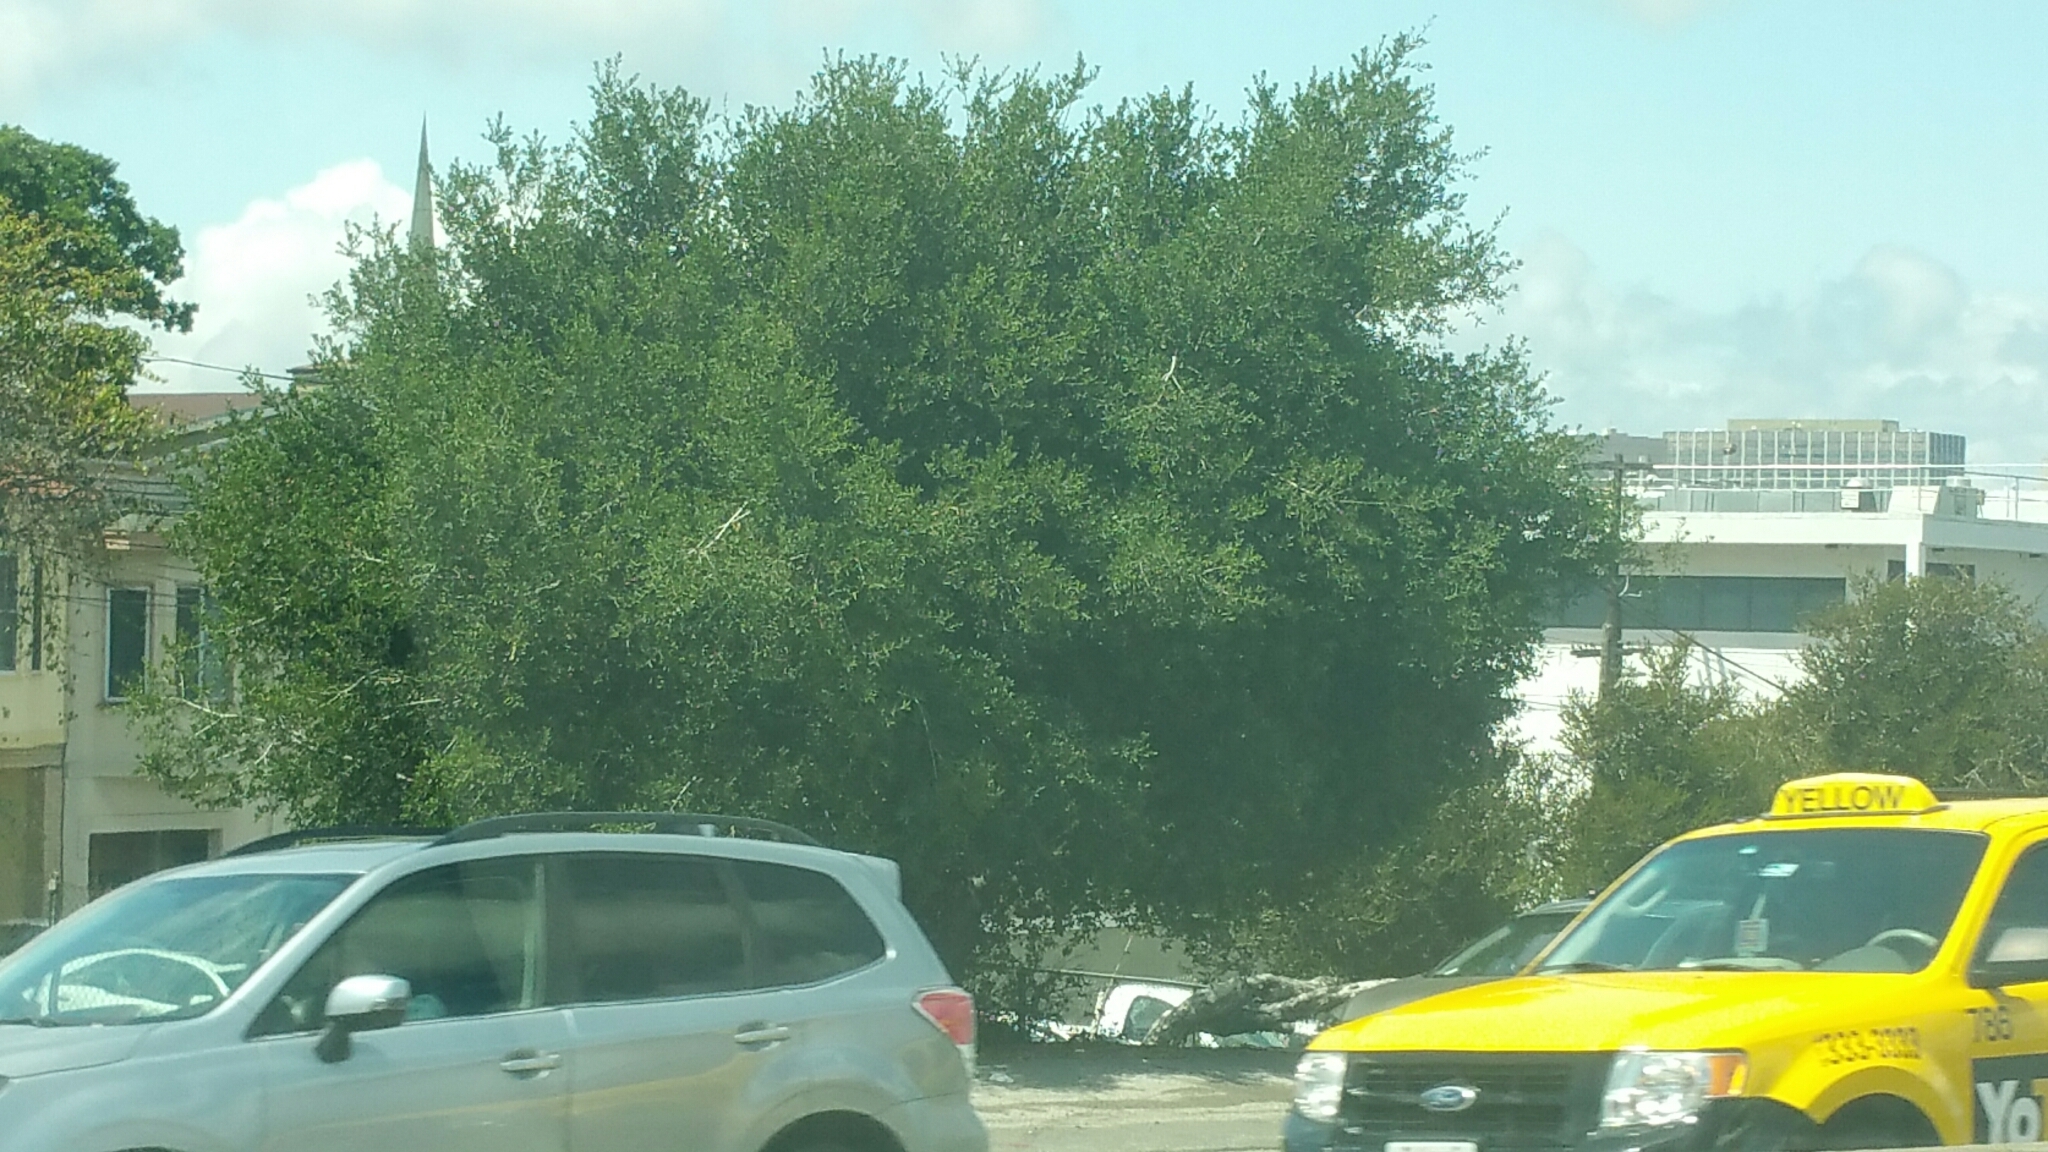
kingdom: Plantae
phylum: Tracheophyta
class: Magnoliopsida
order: Fagales
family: Fagaceae
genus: Quercus
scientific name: Quercus agrifolia
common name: California live oak
